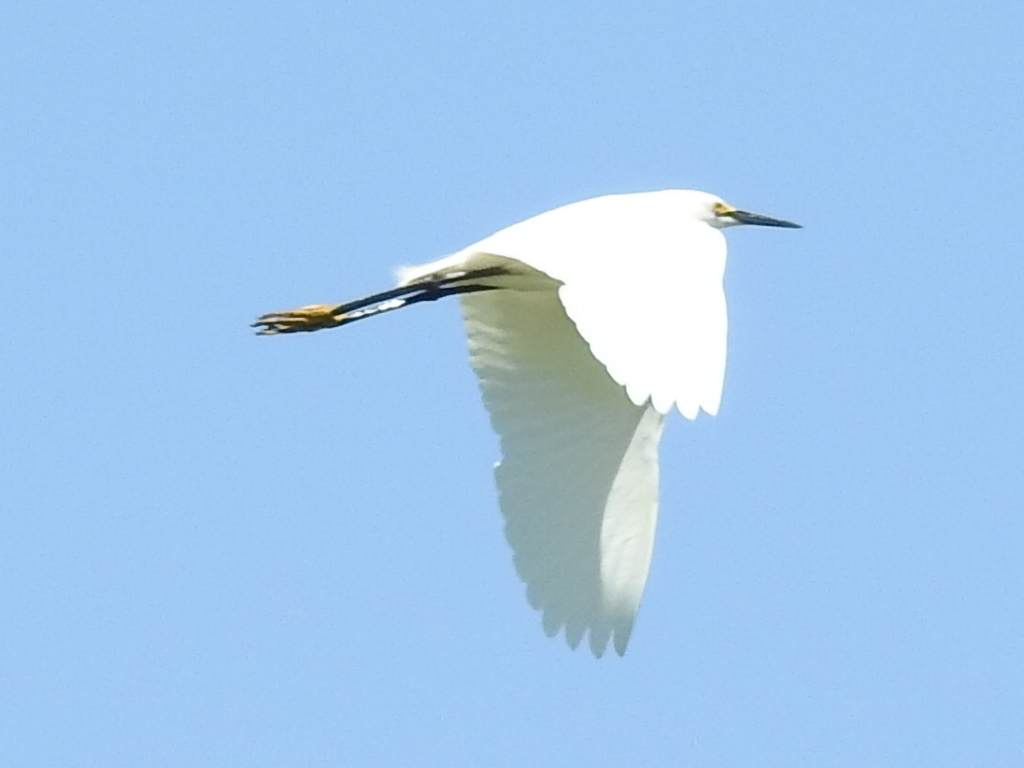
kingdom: Animalia
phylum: Chordata
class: Aves
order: Pelecaniformes
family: Ardeidae
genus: Egretta
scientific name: Egretta thula
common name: Snowy egret
